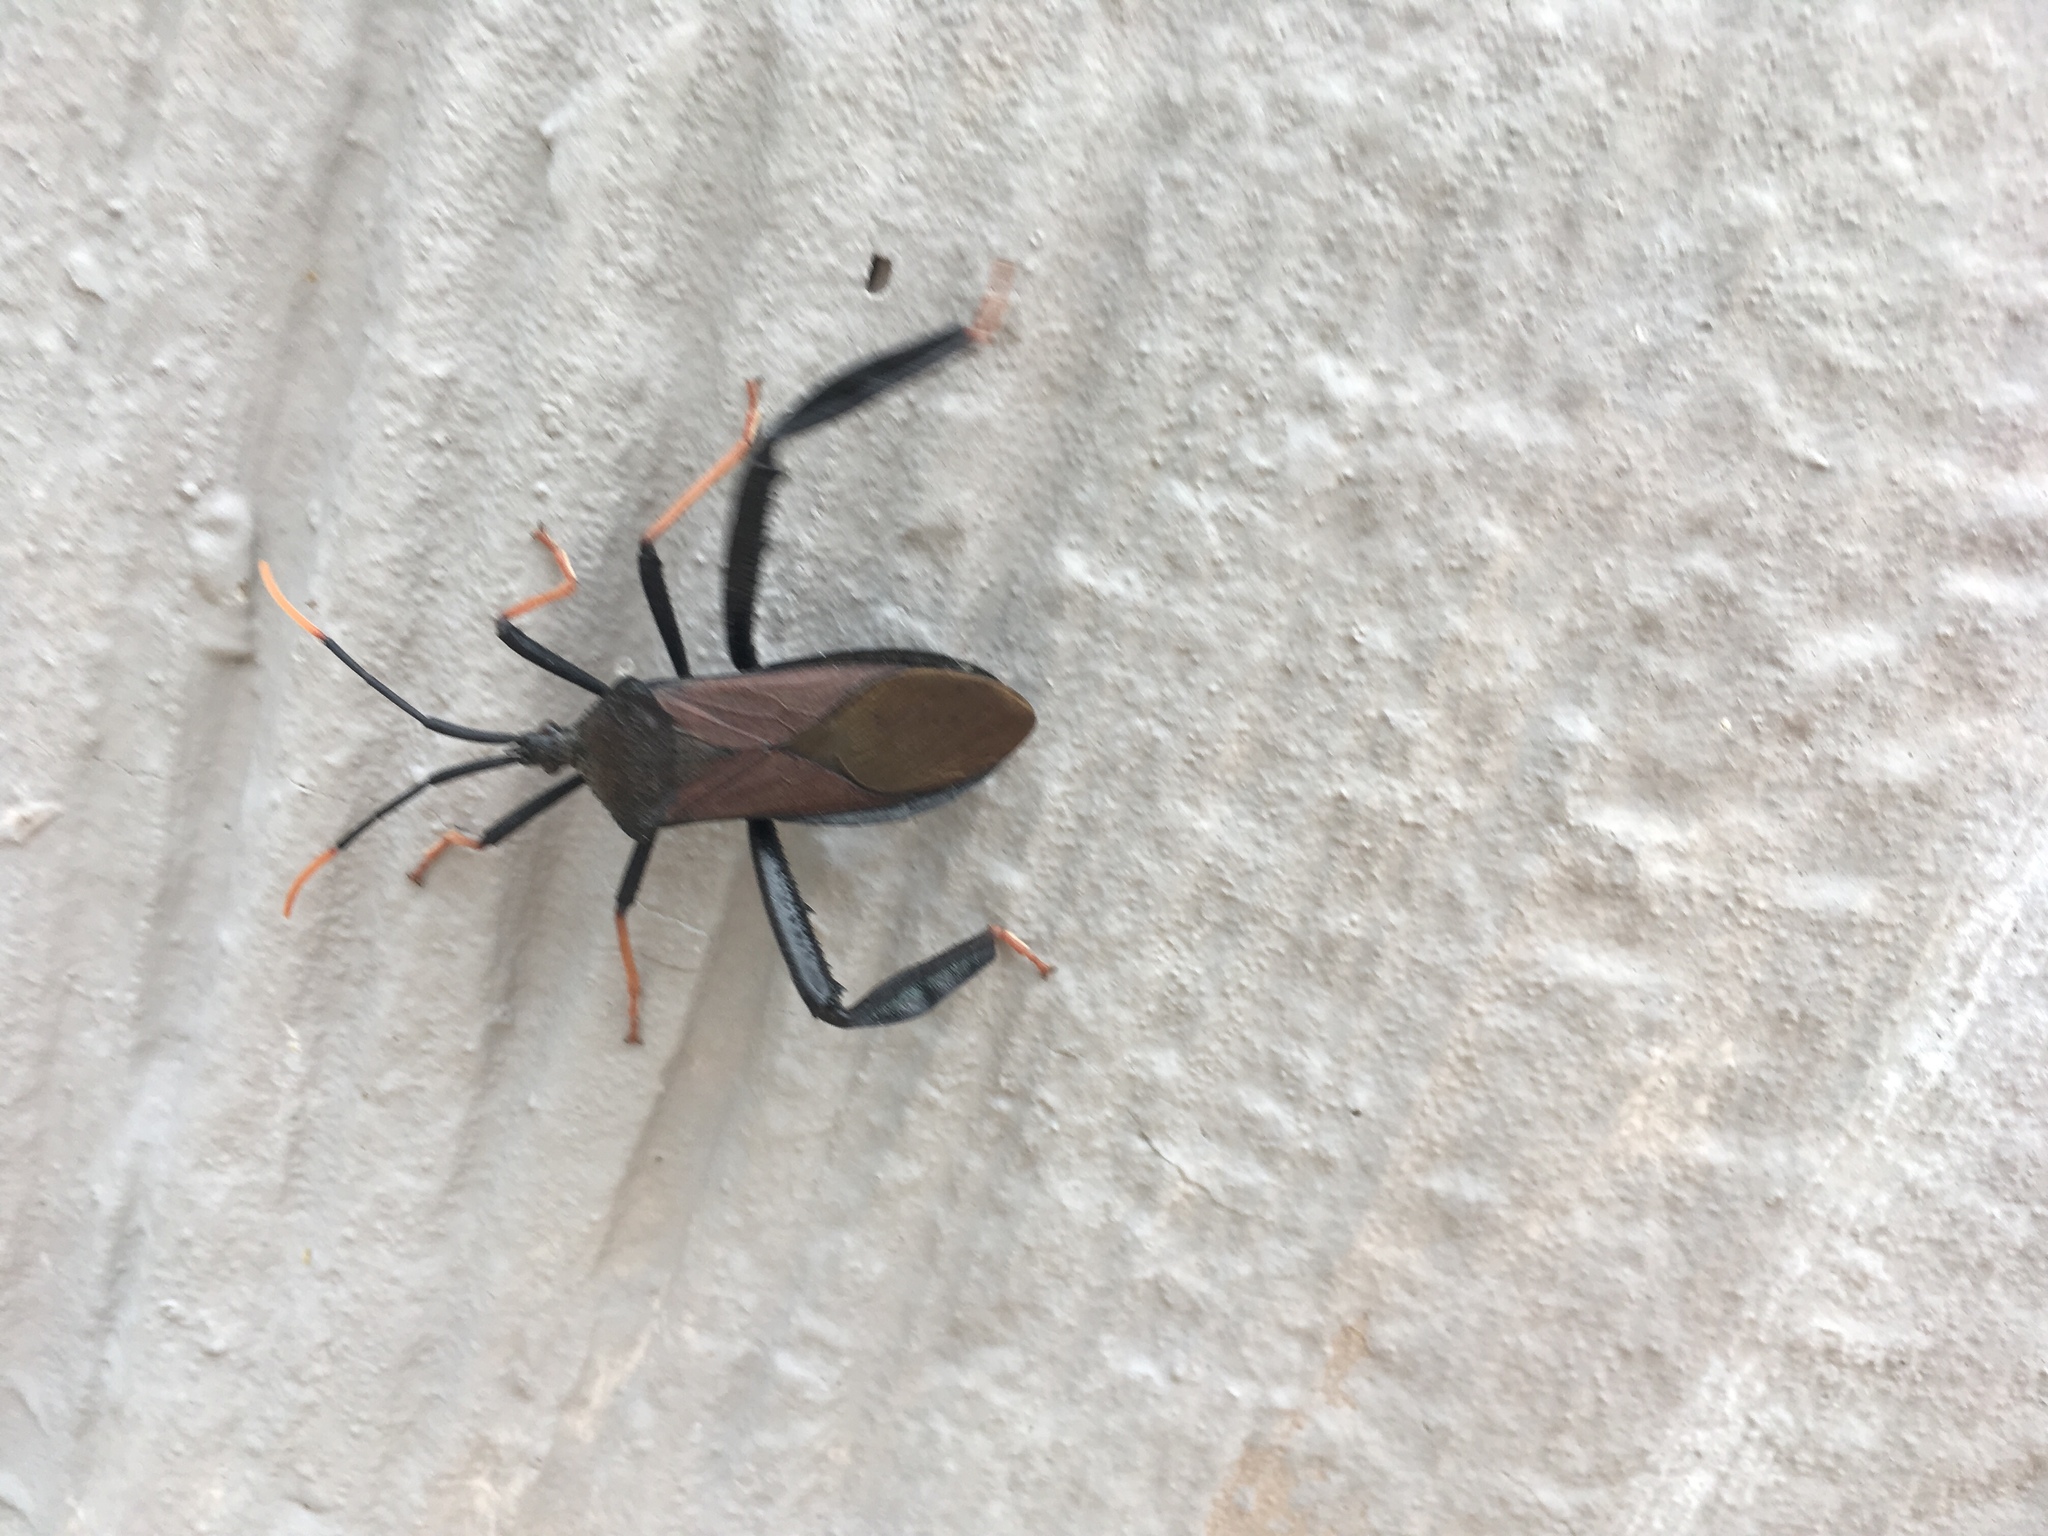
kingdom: Animalia
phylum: Arthropoda
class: Insecta
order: Hemiptera
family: Coreidae
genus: Acanthocephala
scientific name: Acanthocephala thomasi
